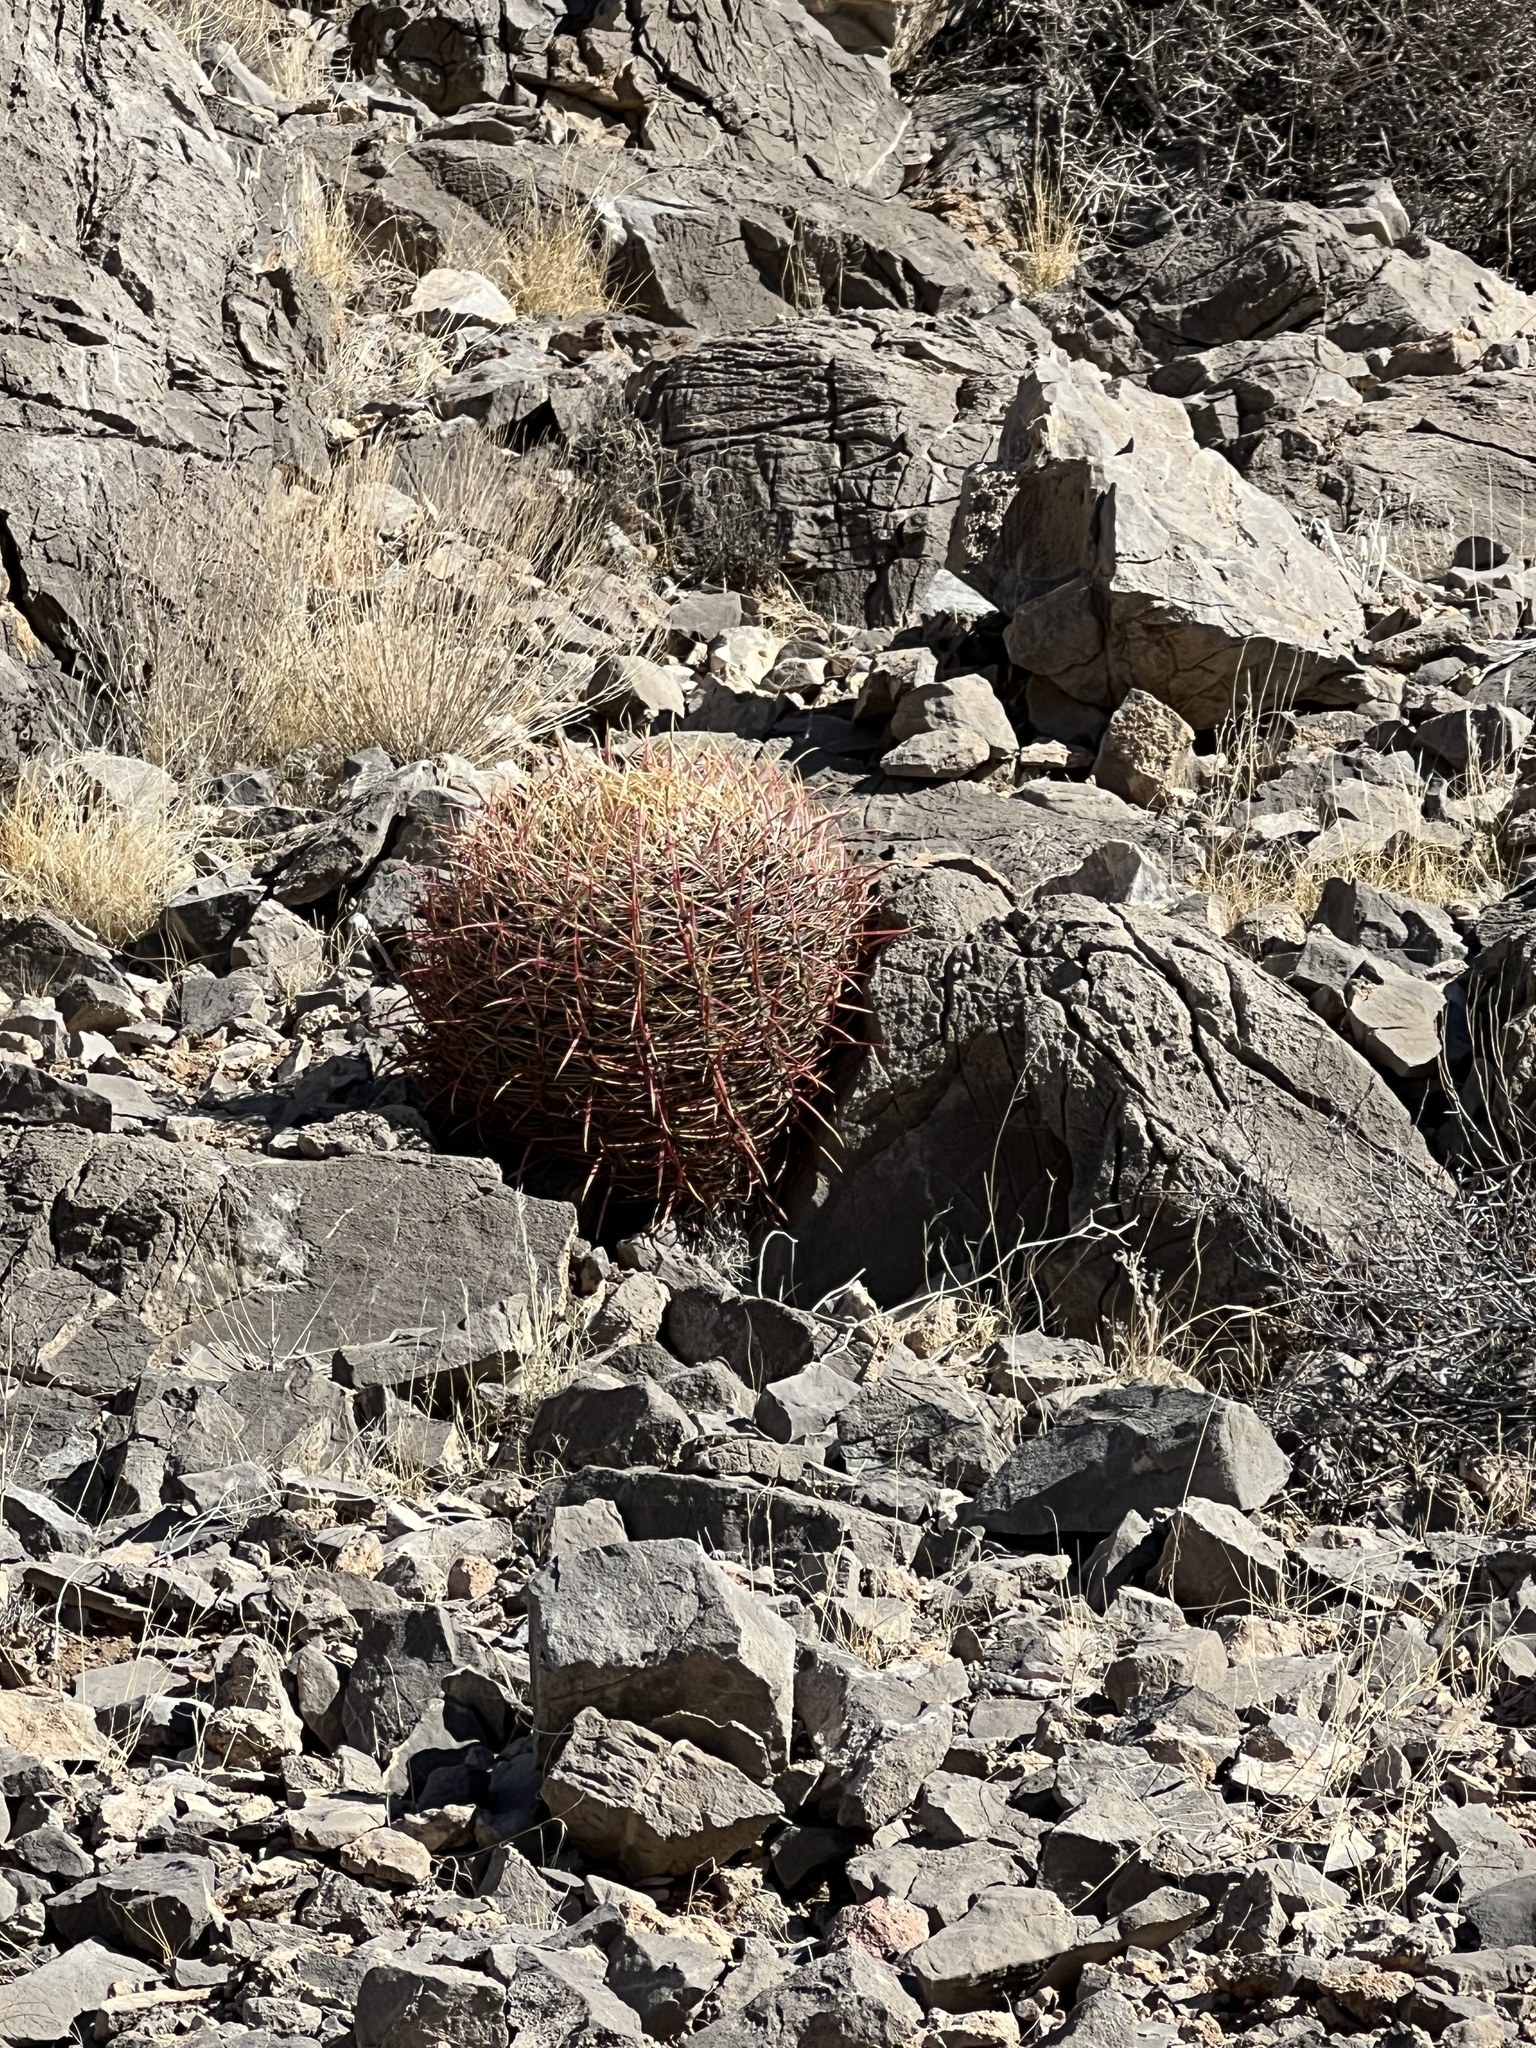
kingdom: Plantae
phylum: Tracheophyta
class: Magnoliopsida
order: Caryophyllales
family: Cactaceae
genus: Ferocactus
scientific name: Ferocactus cylindraceus
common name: California barrel cactus
